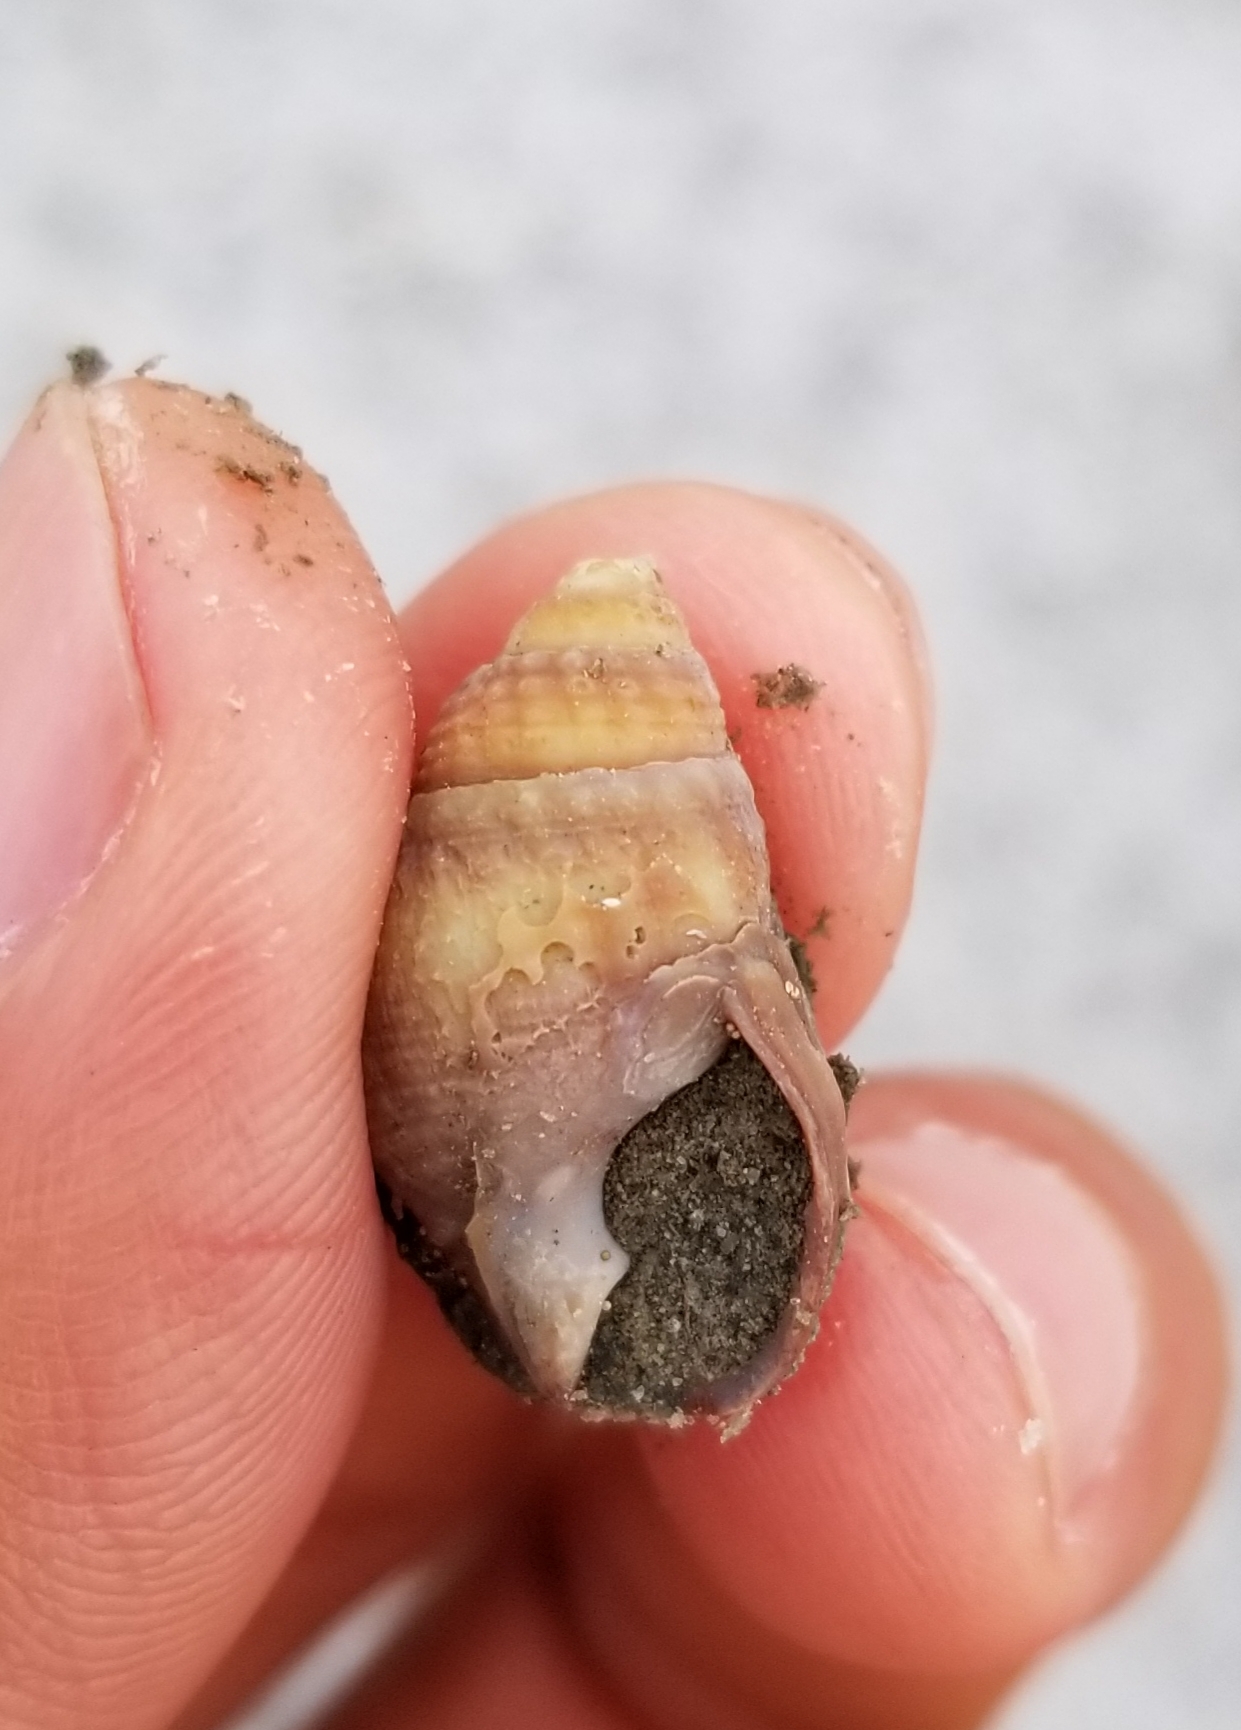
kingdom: Animalia
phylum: Mollusca
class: Gastropoda
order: Neogastropoda
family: Nassariidae
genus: Ilyanassa
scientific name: Ilyanassa obsoleta
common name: Eastern mudsnail
